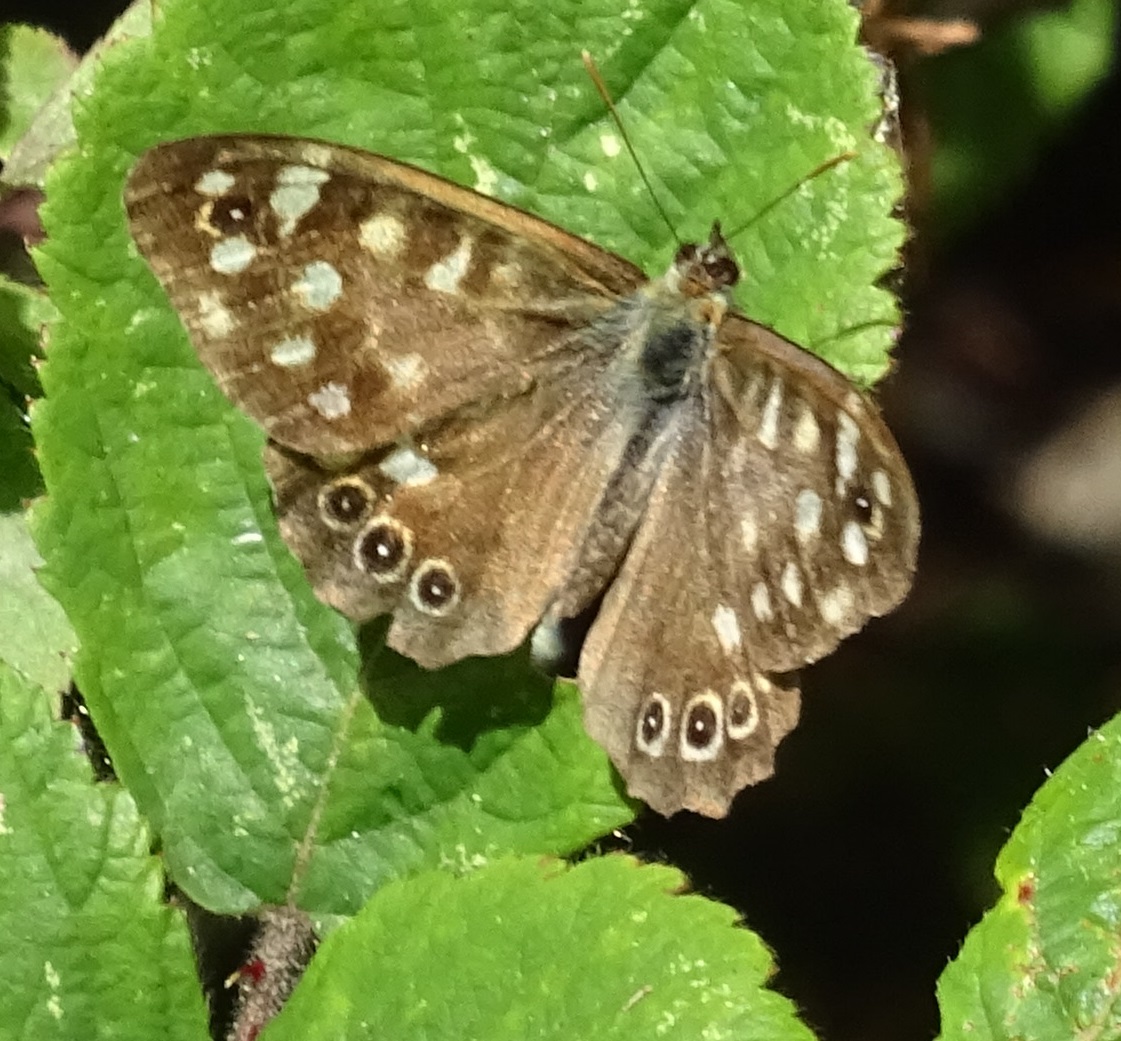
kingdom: Animalia
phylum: Arthropoda
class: Insecta
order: Lepidoptera
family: Nymphalidae
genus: Pararge
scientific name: Pararge aegeria
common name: Speckled wood
